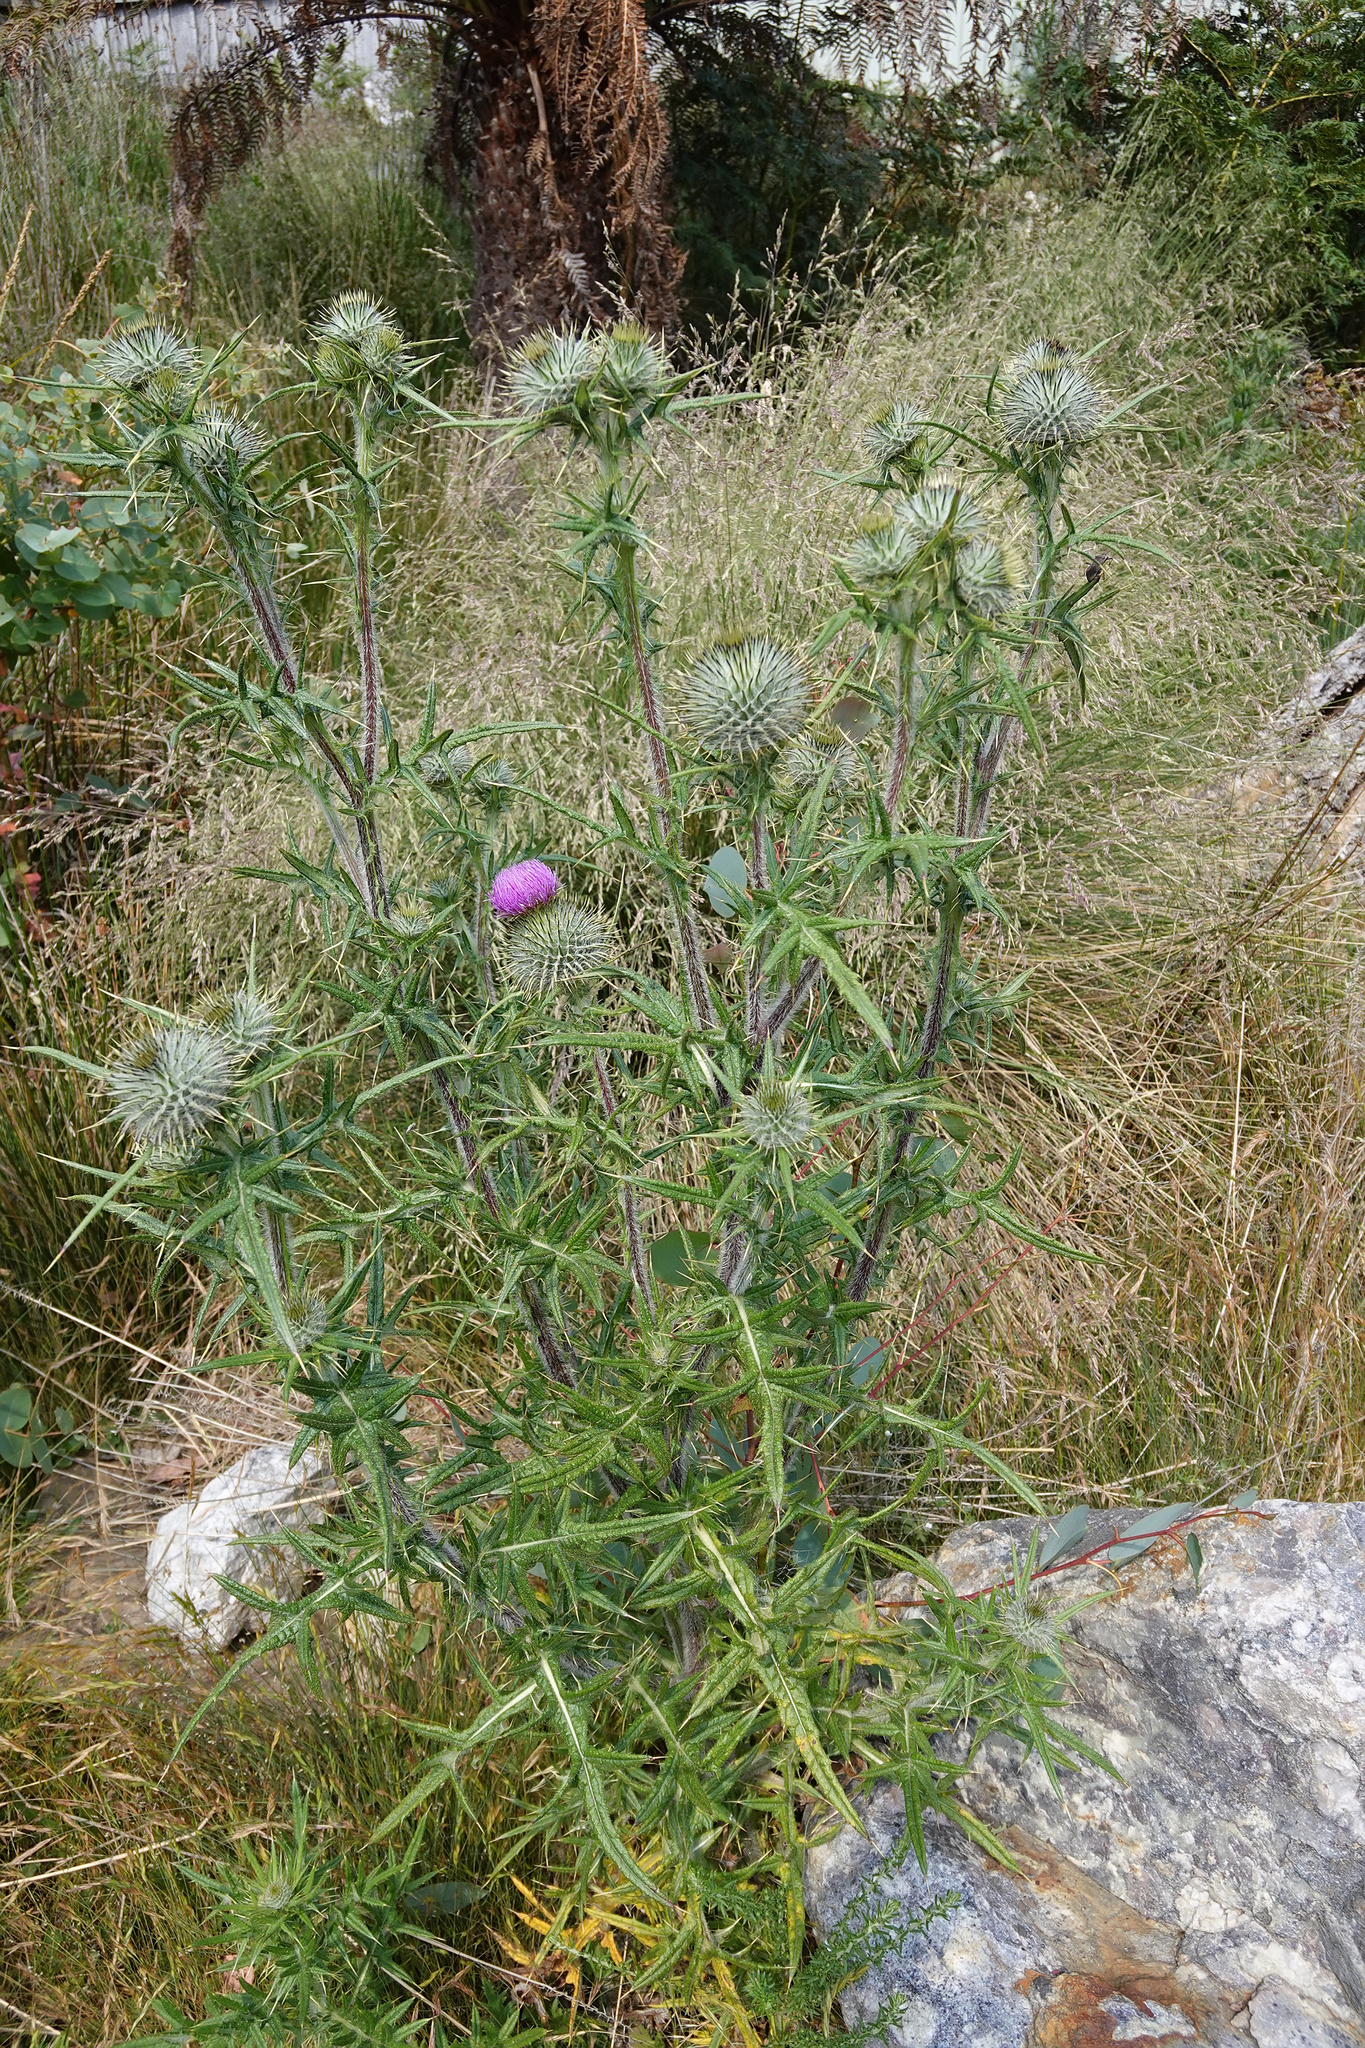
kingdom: Plantae
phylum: Tracheophyta
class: Magnoliopsida
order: Asterales
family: Asteraceae
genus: Cirsium
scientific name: Cirsium vulgare
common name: Bull thistle
